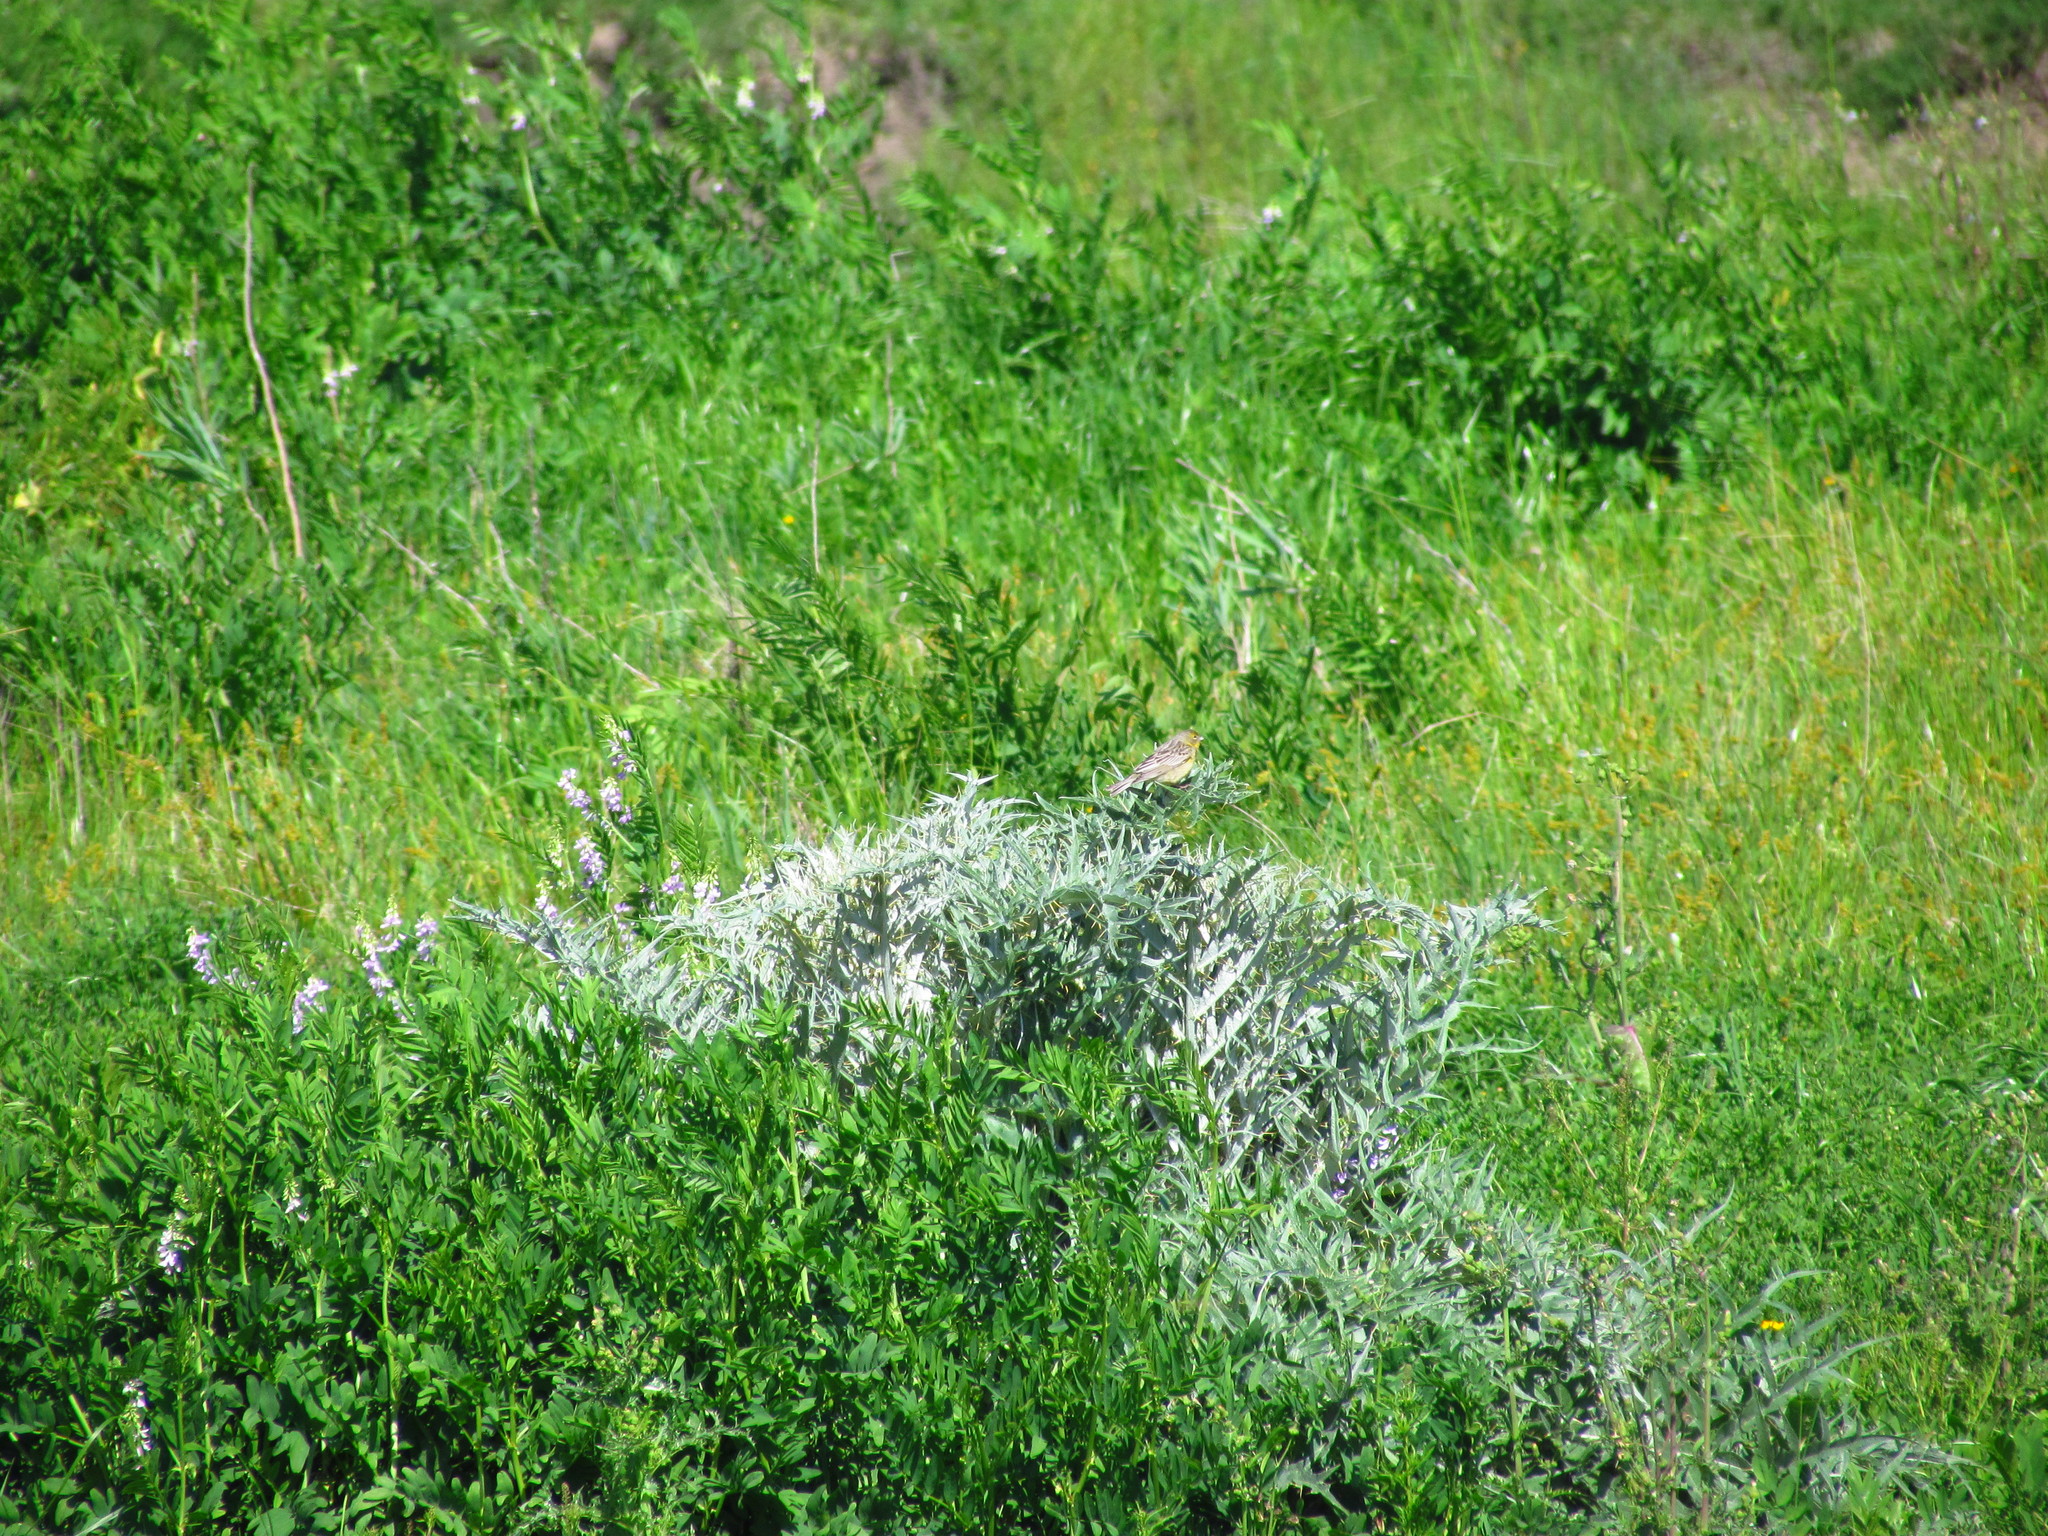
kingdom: Animalia
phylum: Chordata
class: Aves
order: Passeriformes
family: Thraupidae
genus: Sicalis
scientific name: Sicalis luteola
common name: Grassland yellow-finch
